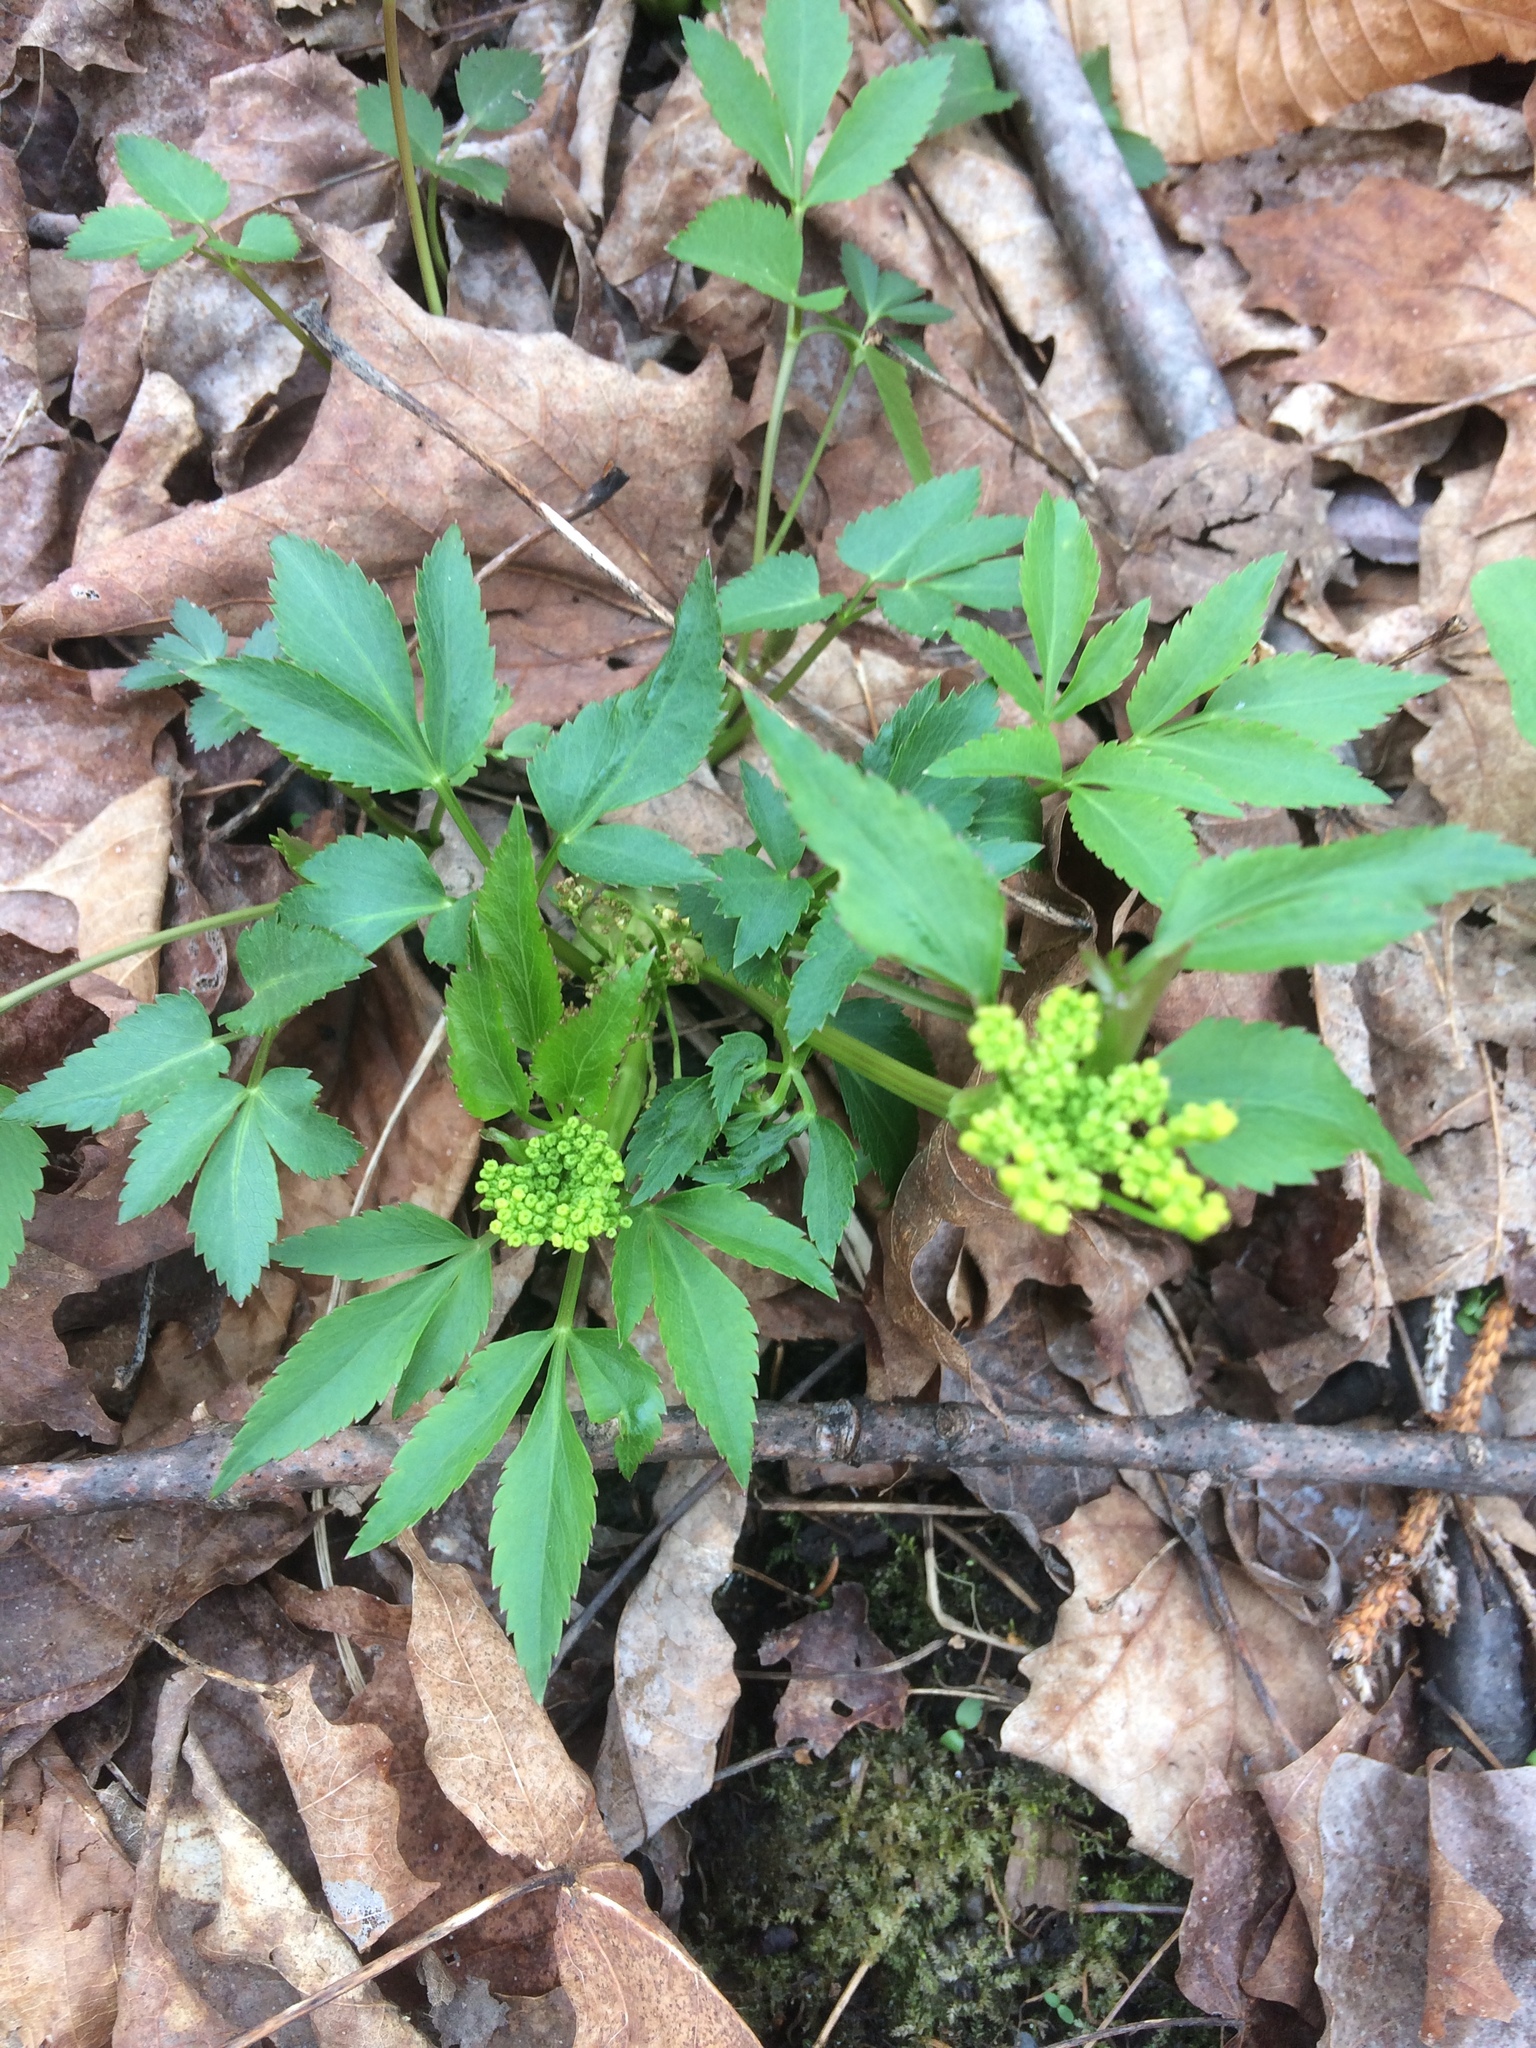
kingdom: Plantae
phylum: Tracheophyta
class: Magnoliopsida
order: Apiales
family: Apiaceae
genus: Zizia
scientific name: Zizia aurea
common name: Golden alexanders
